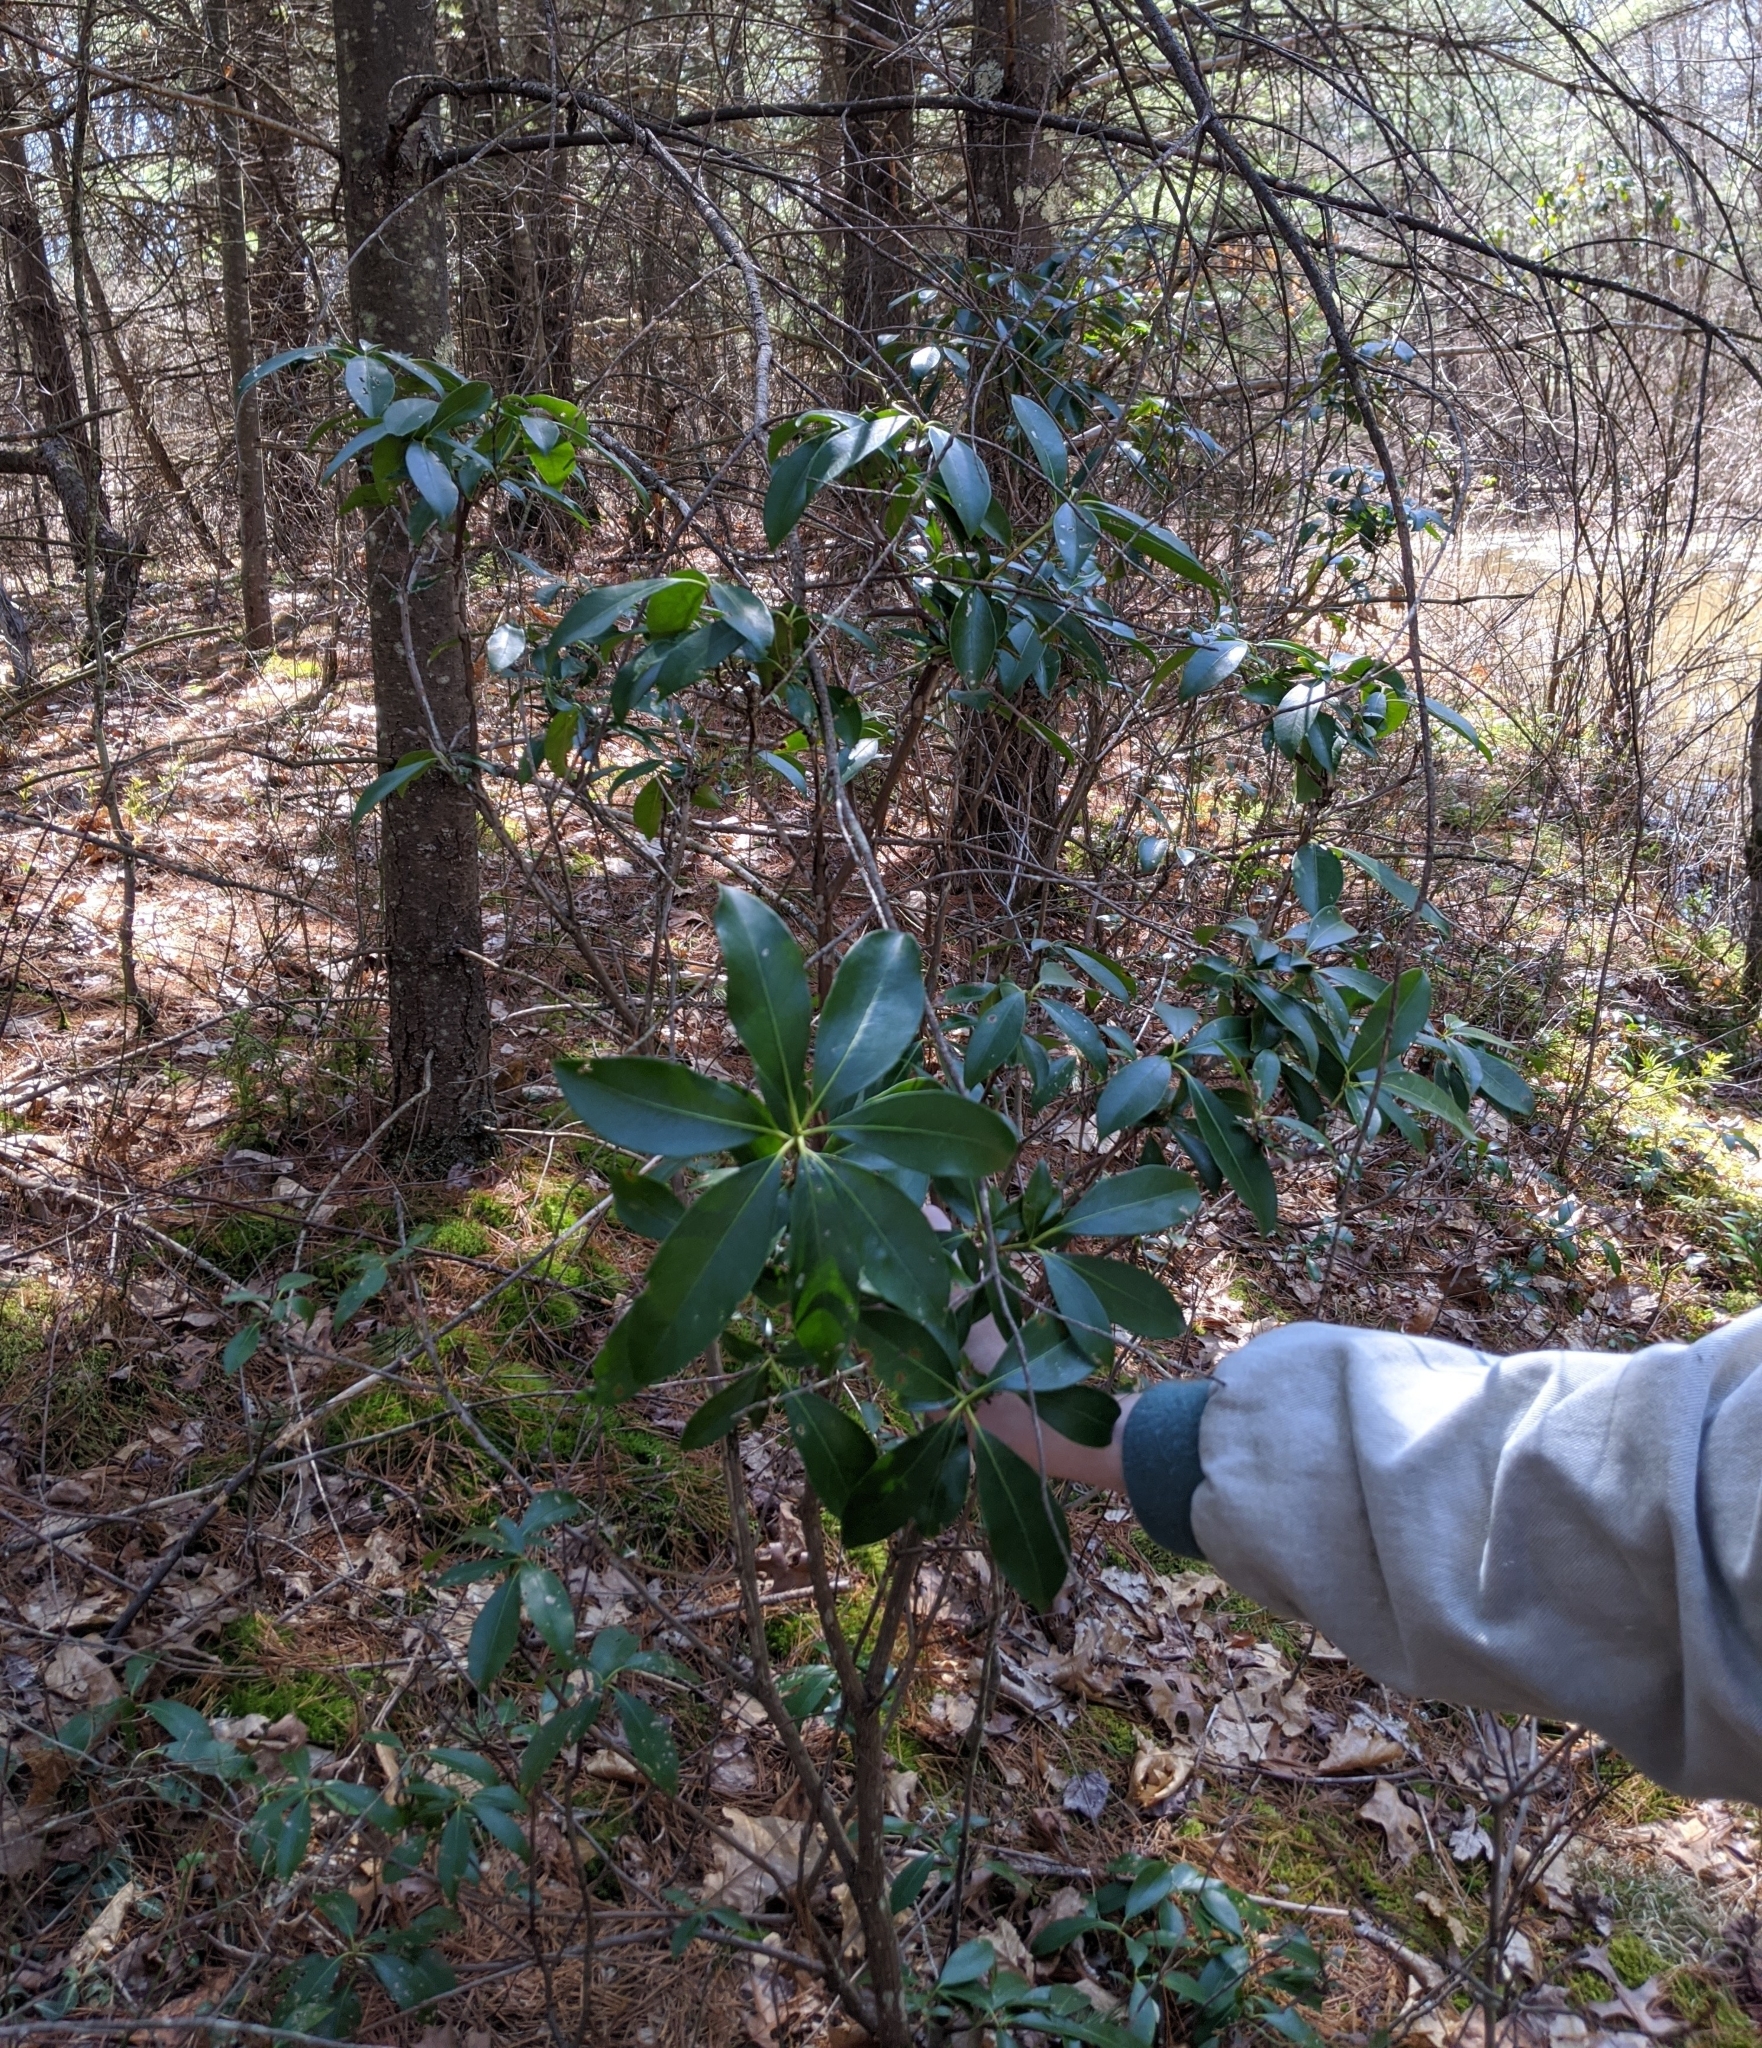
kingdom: Plantae
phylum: Tracheophyta
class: Magnoliopsida
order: Ericales
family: Ericaceae
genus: Kalmia
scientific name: Kalmia latifolia
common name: Mountain-laurel
